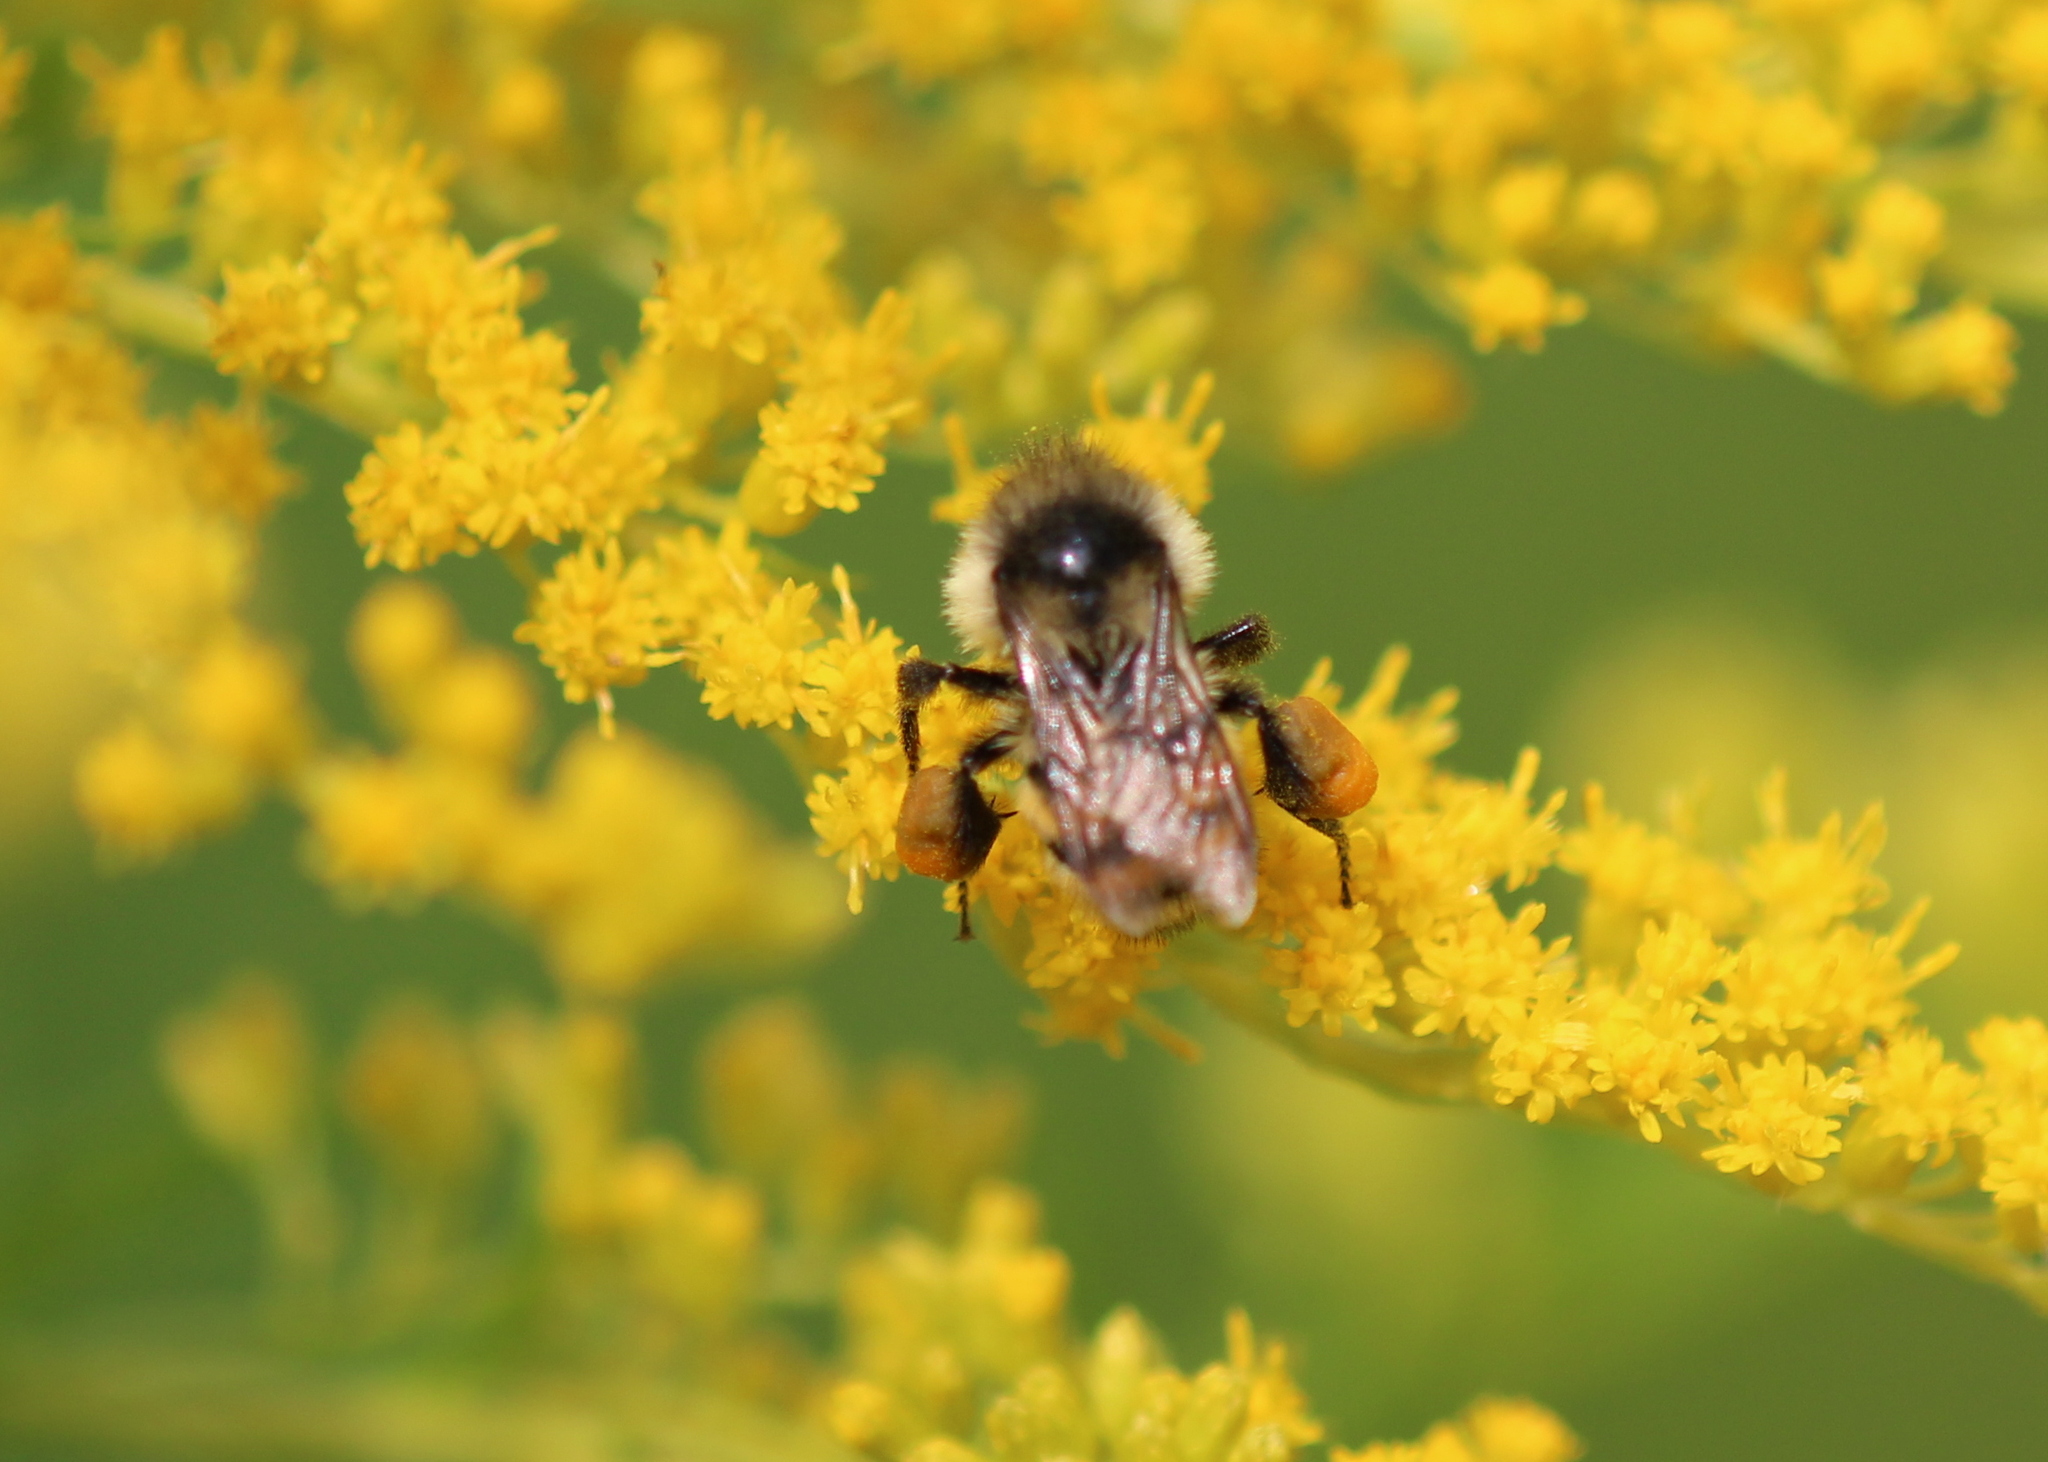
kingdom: Animalia
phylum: Arthropoda
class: Insecta
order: Hymenoptera
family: Apidae
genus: Bombus
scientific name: Bombus ternarius
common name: Tri-colored bumble bee
